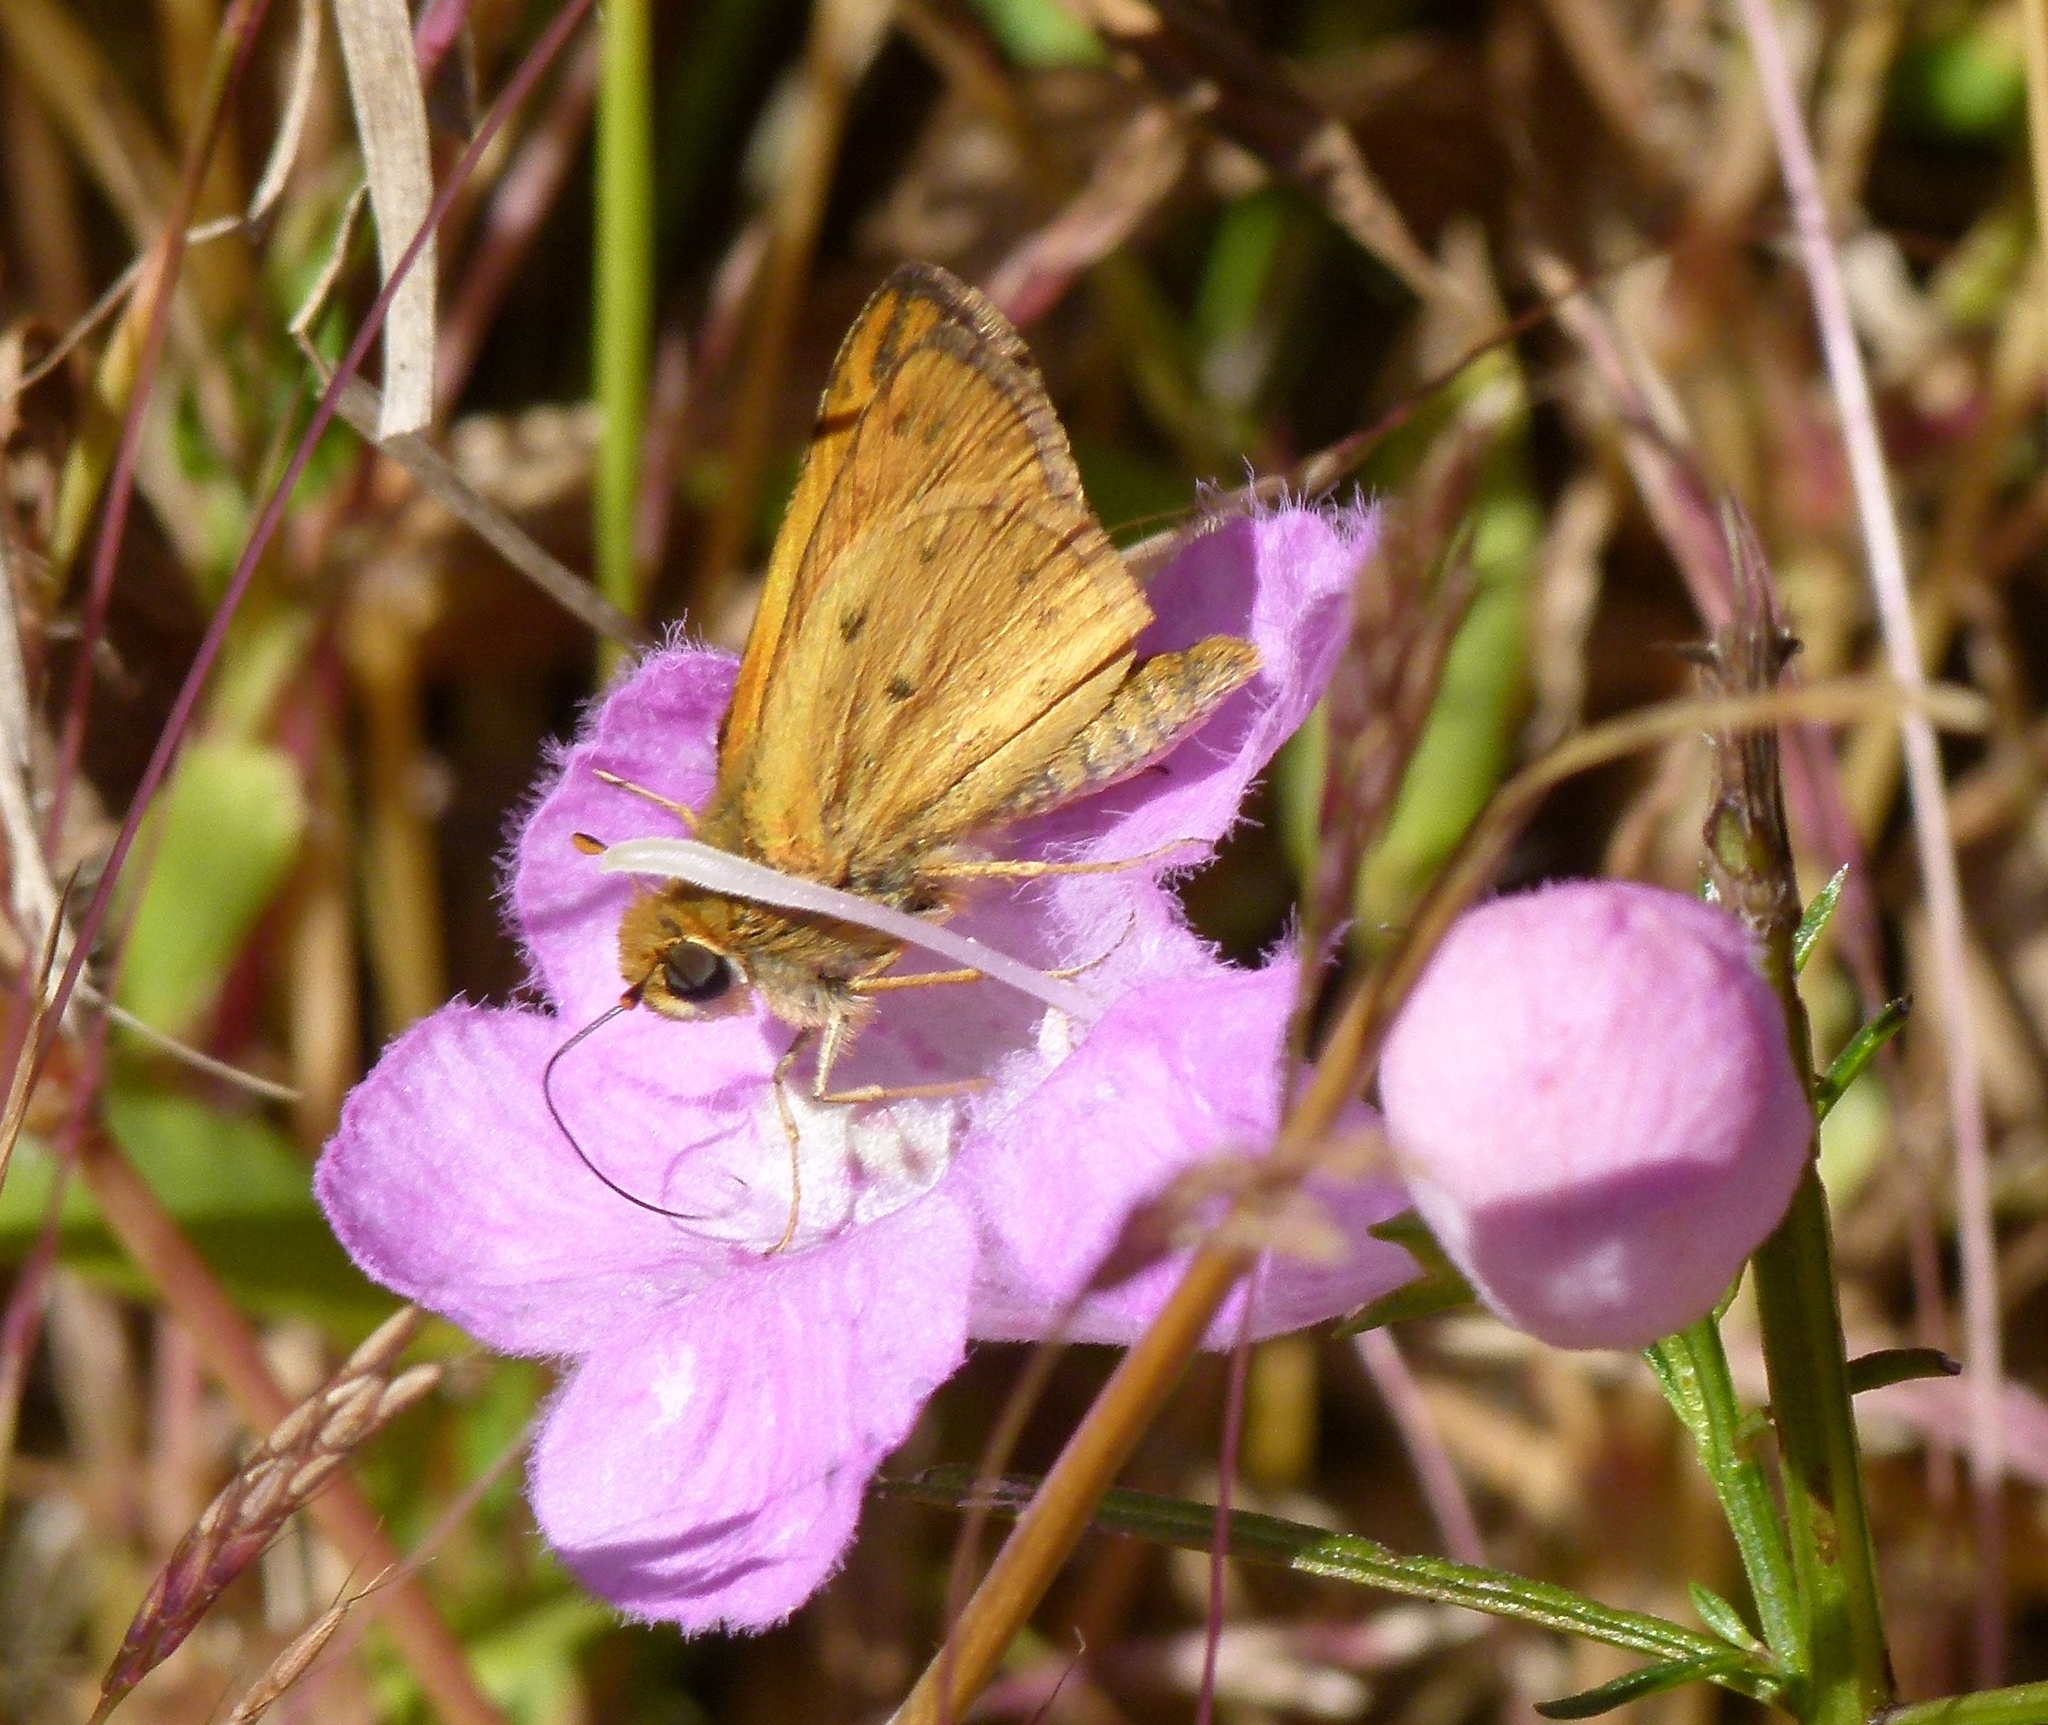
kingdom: Animalia
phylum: Arthropoda
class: Insecta
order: Lepidoptera
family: Hesperiidae
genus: Hylephila
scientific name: Hylephila phyleus
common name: Fiery skipper
